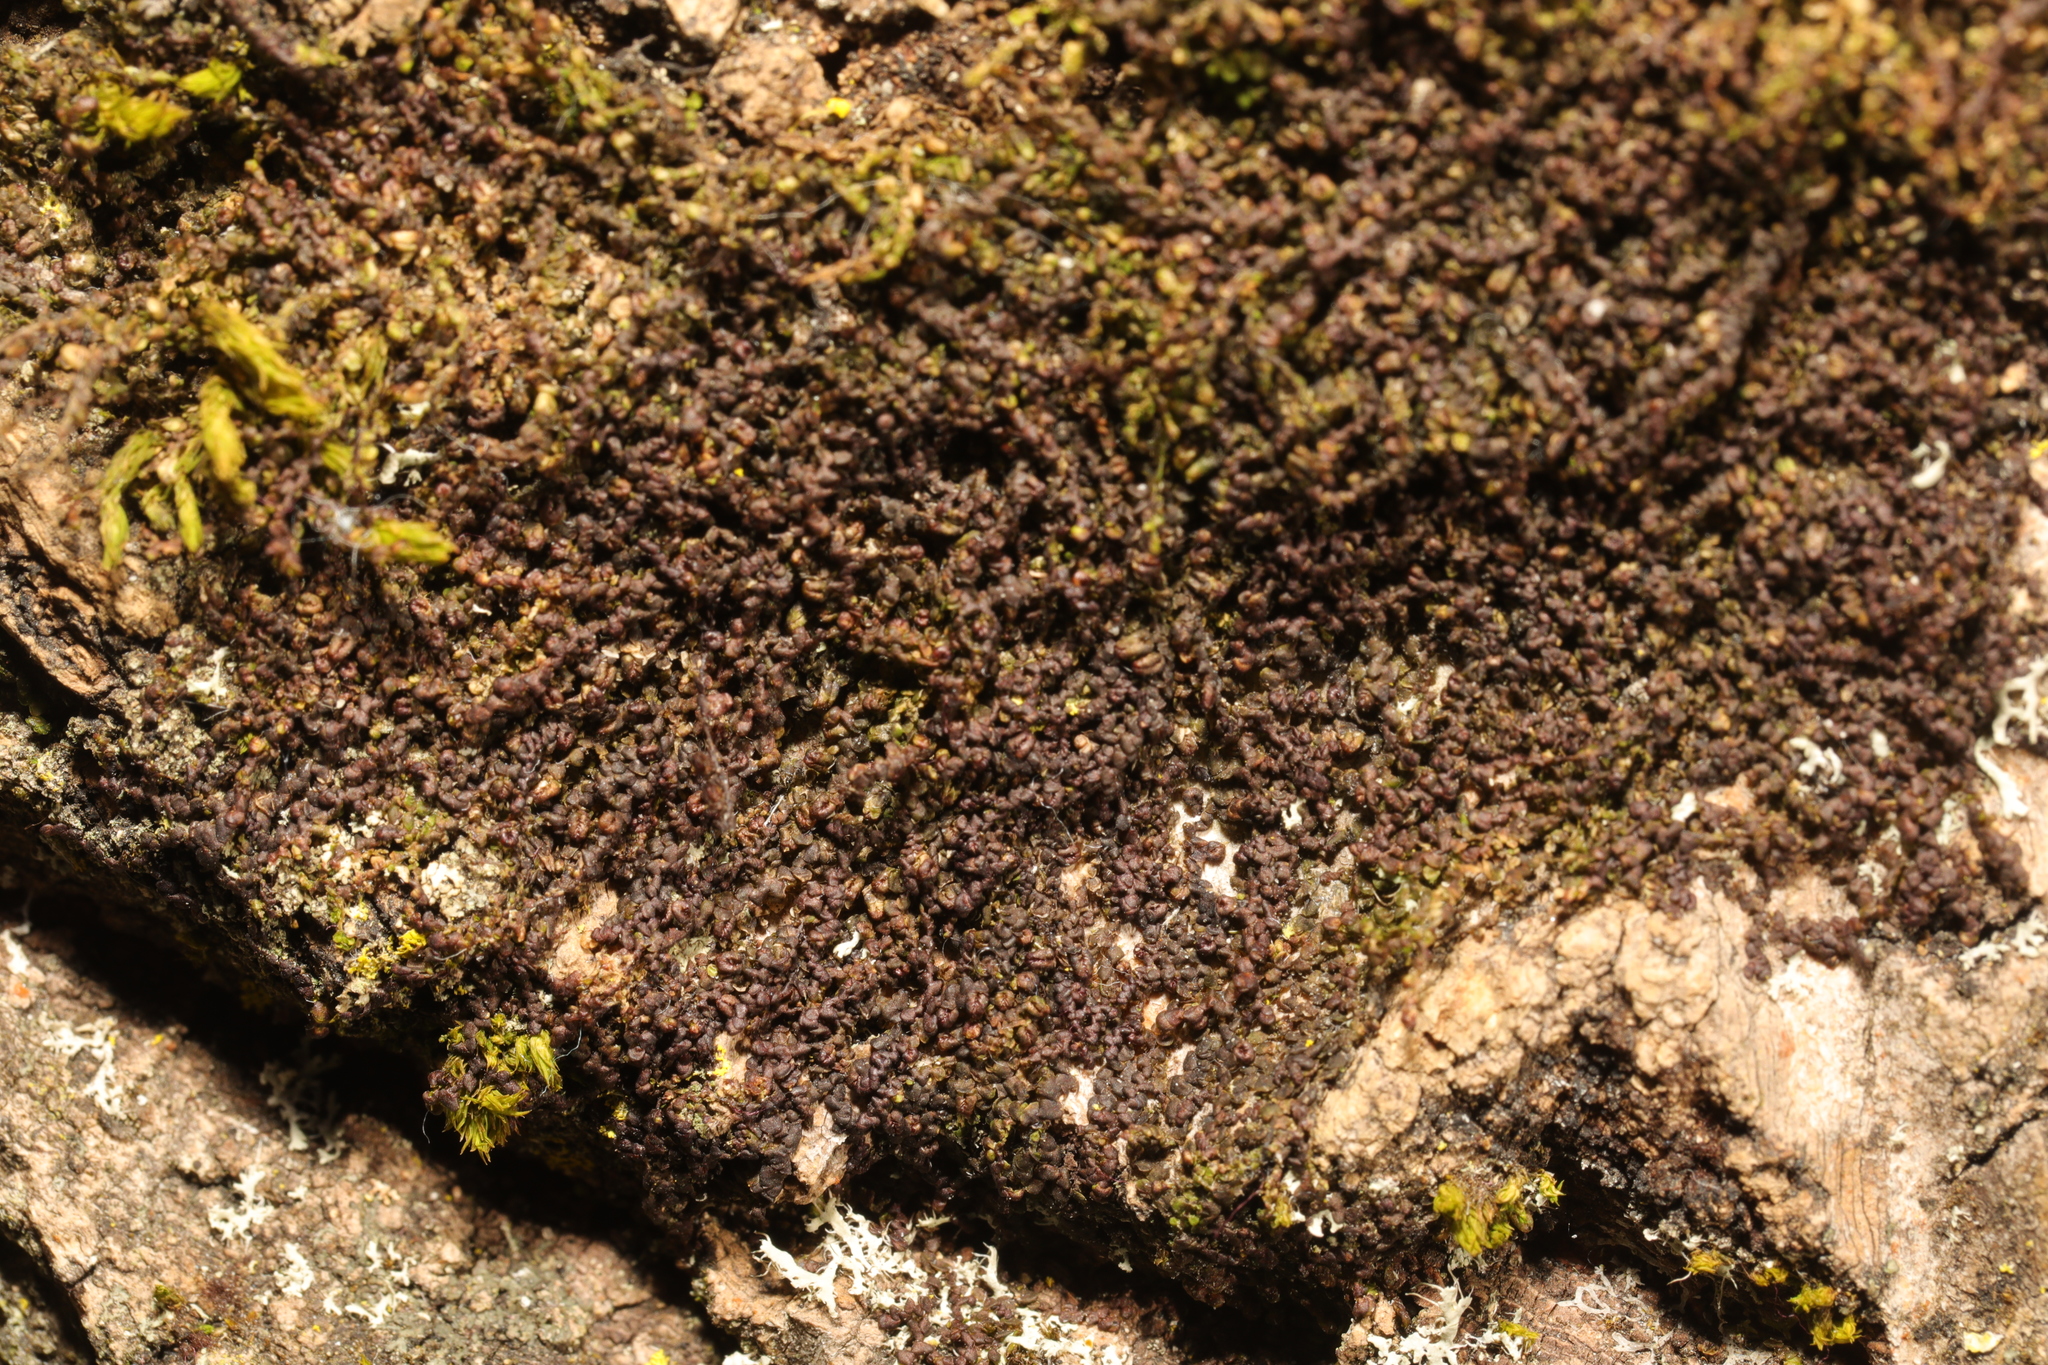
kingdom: Plantae
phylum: Marchantiophyta
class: Jungermanniopsida
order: Porellales
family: Frullaniaceae
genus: Frullania
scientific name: Frullania dilatata
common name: Dilated scalewort
